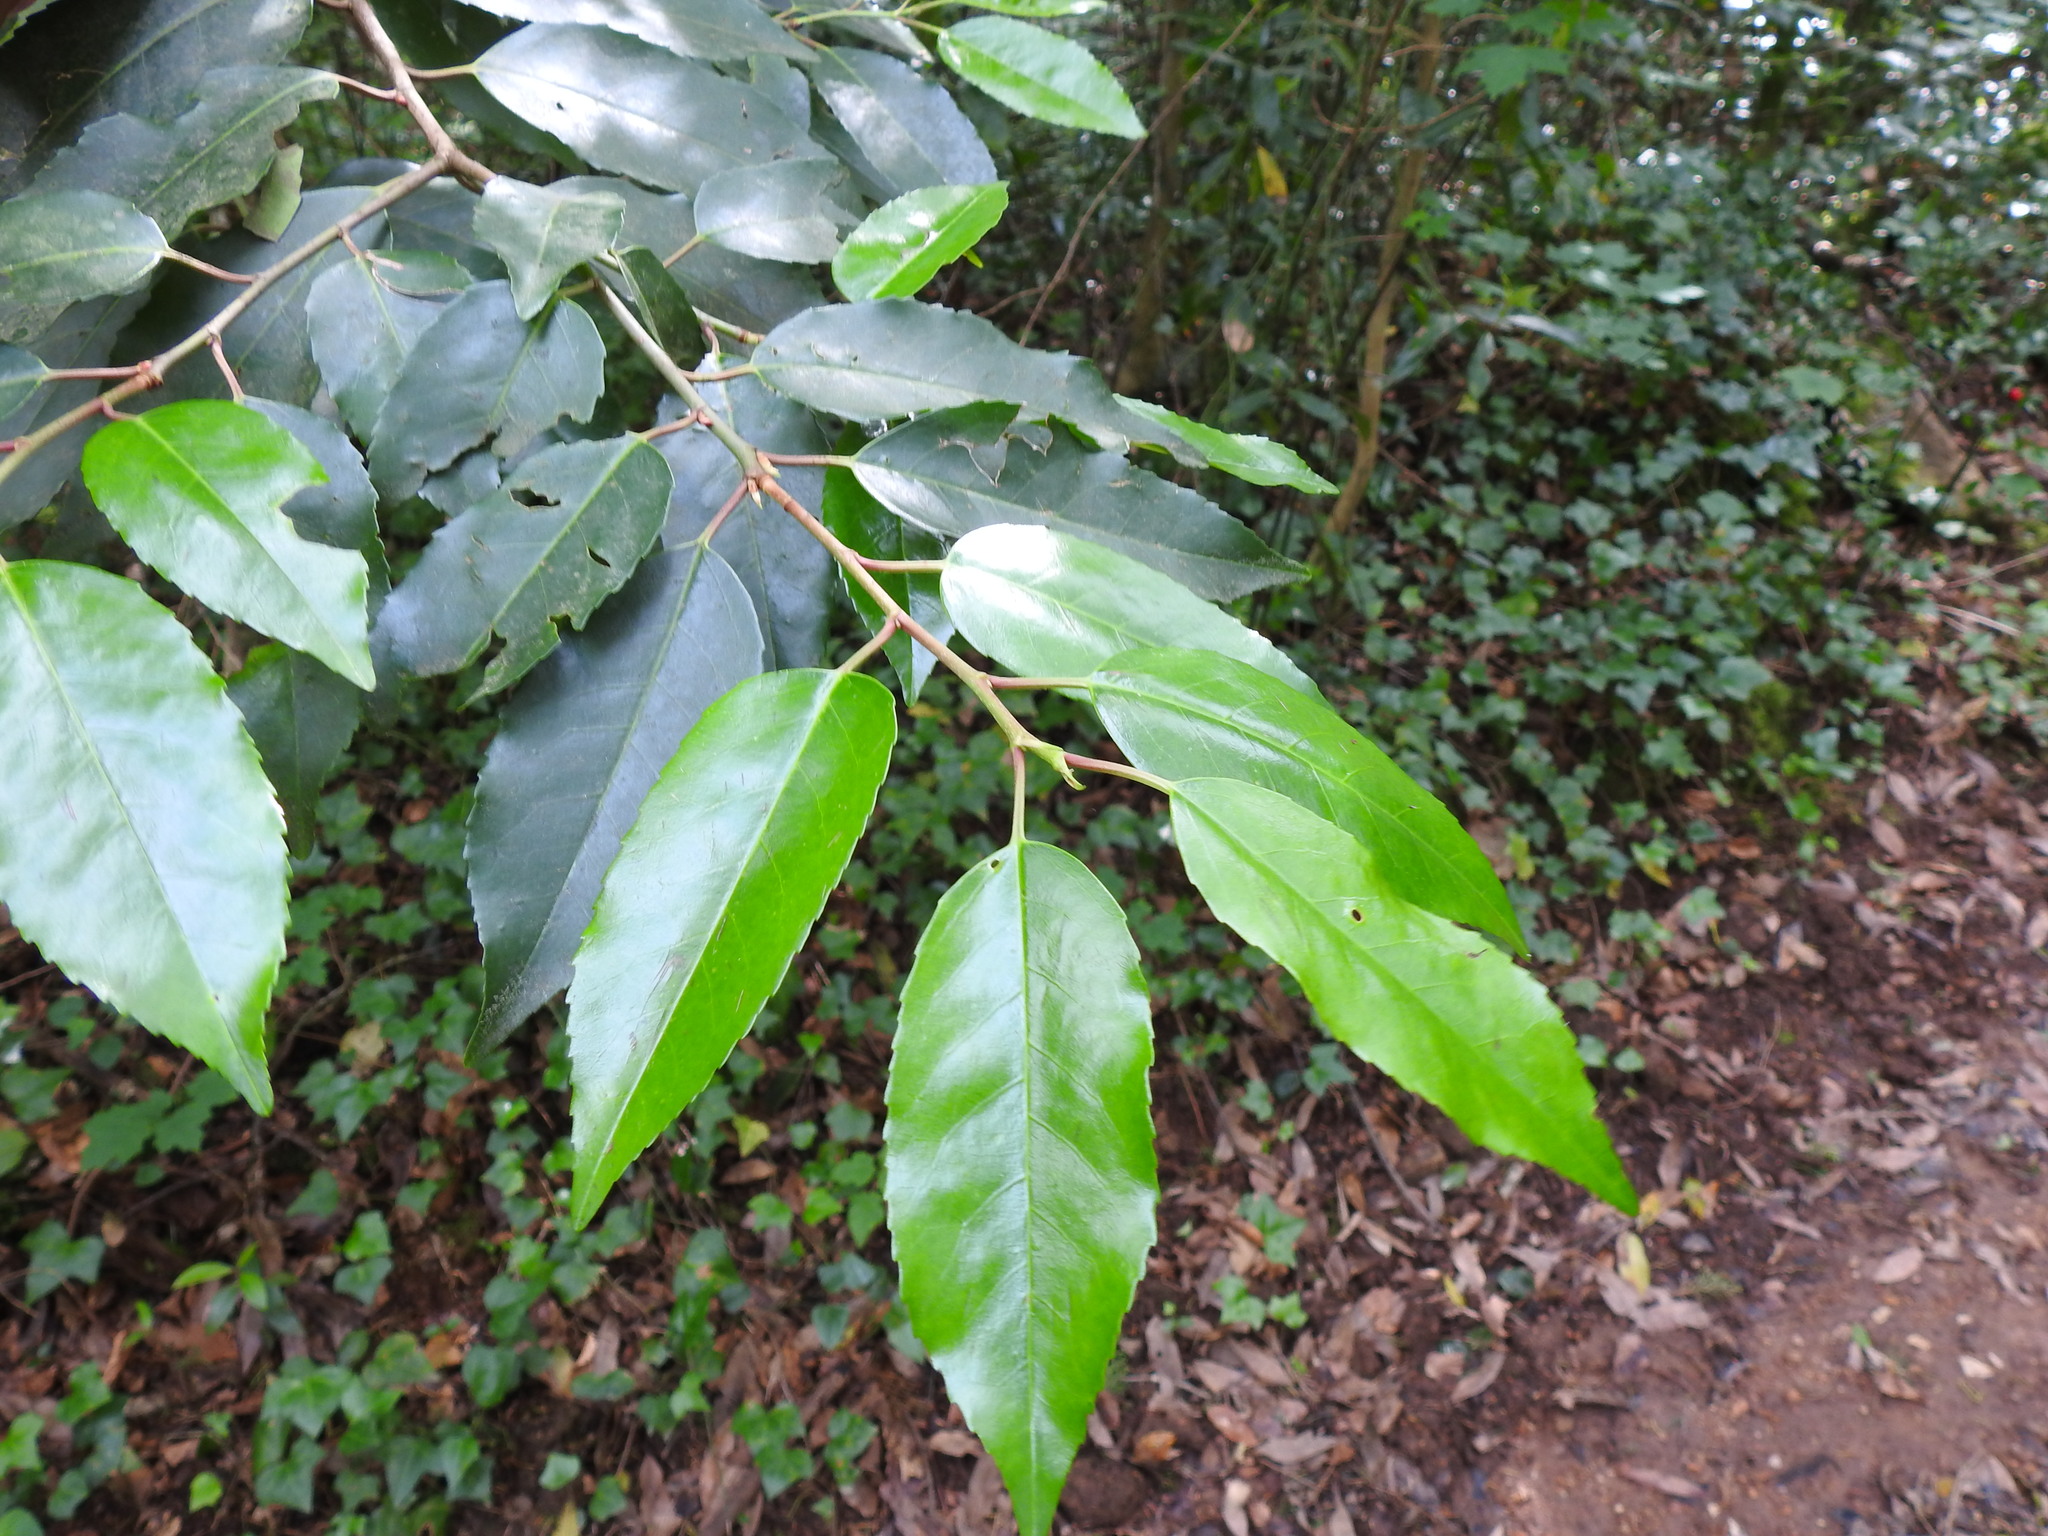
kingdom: Plantae
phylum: Tracheophyta
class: Magnoliopsida
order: Rosales
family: Rosaceae
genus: Prunus
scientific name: Prunus lusitanica
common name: Portugal laurel
